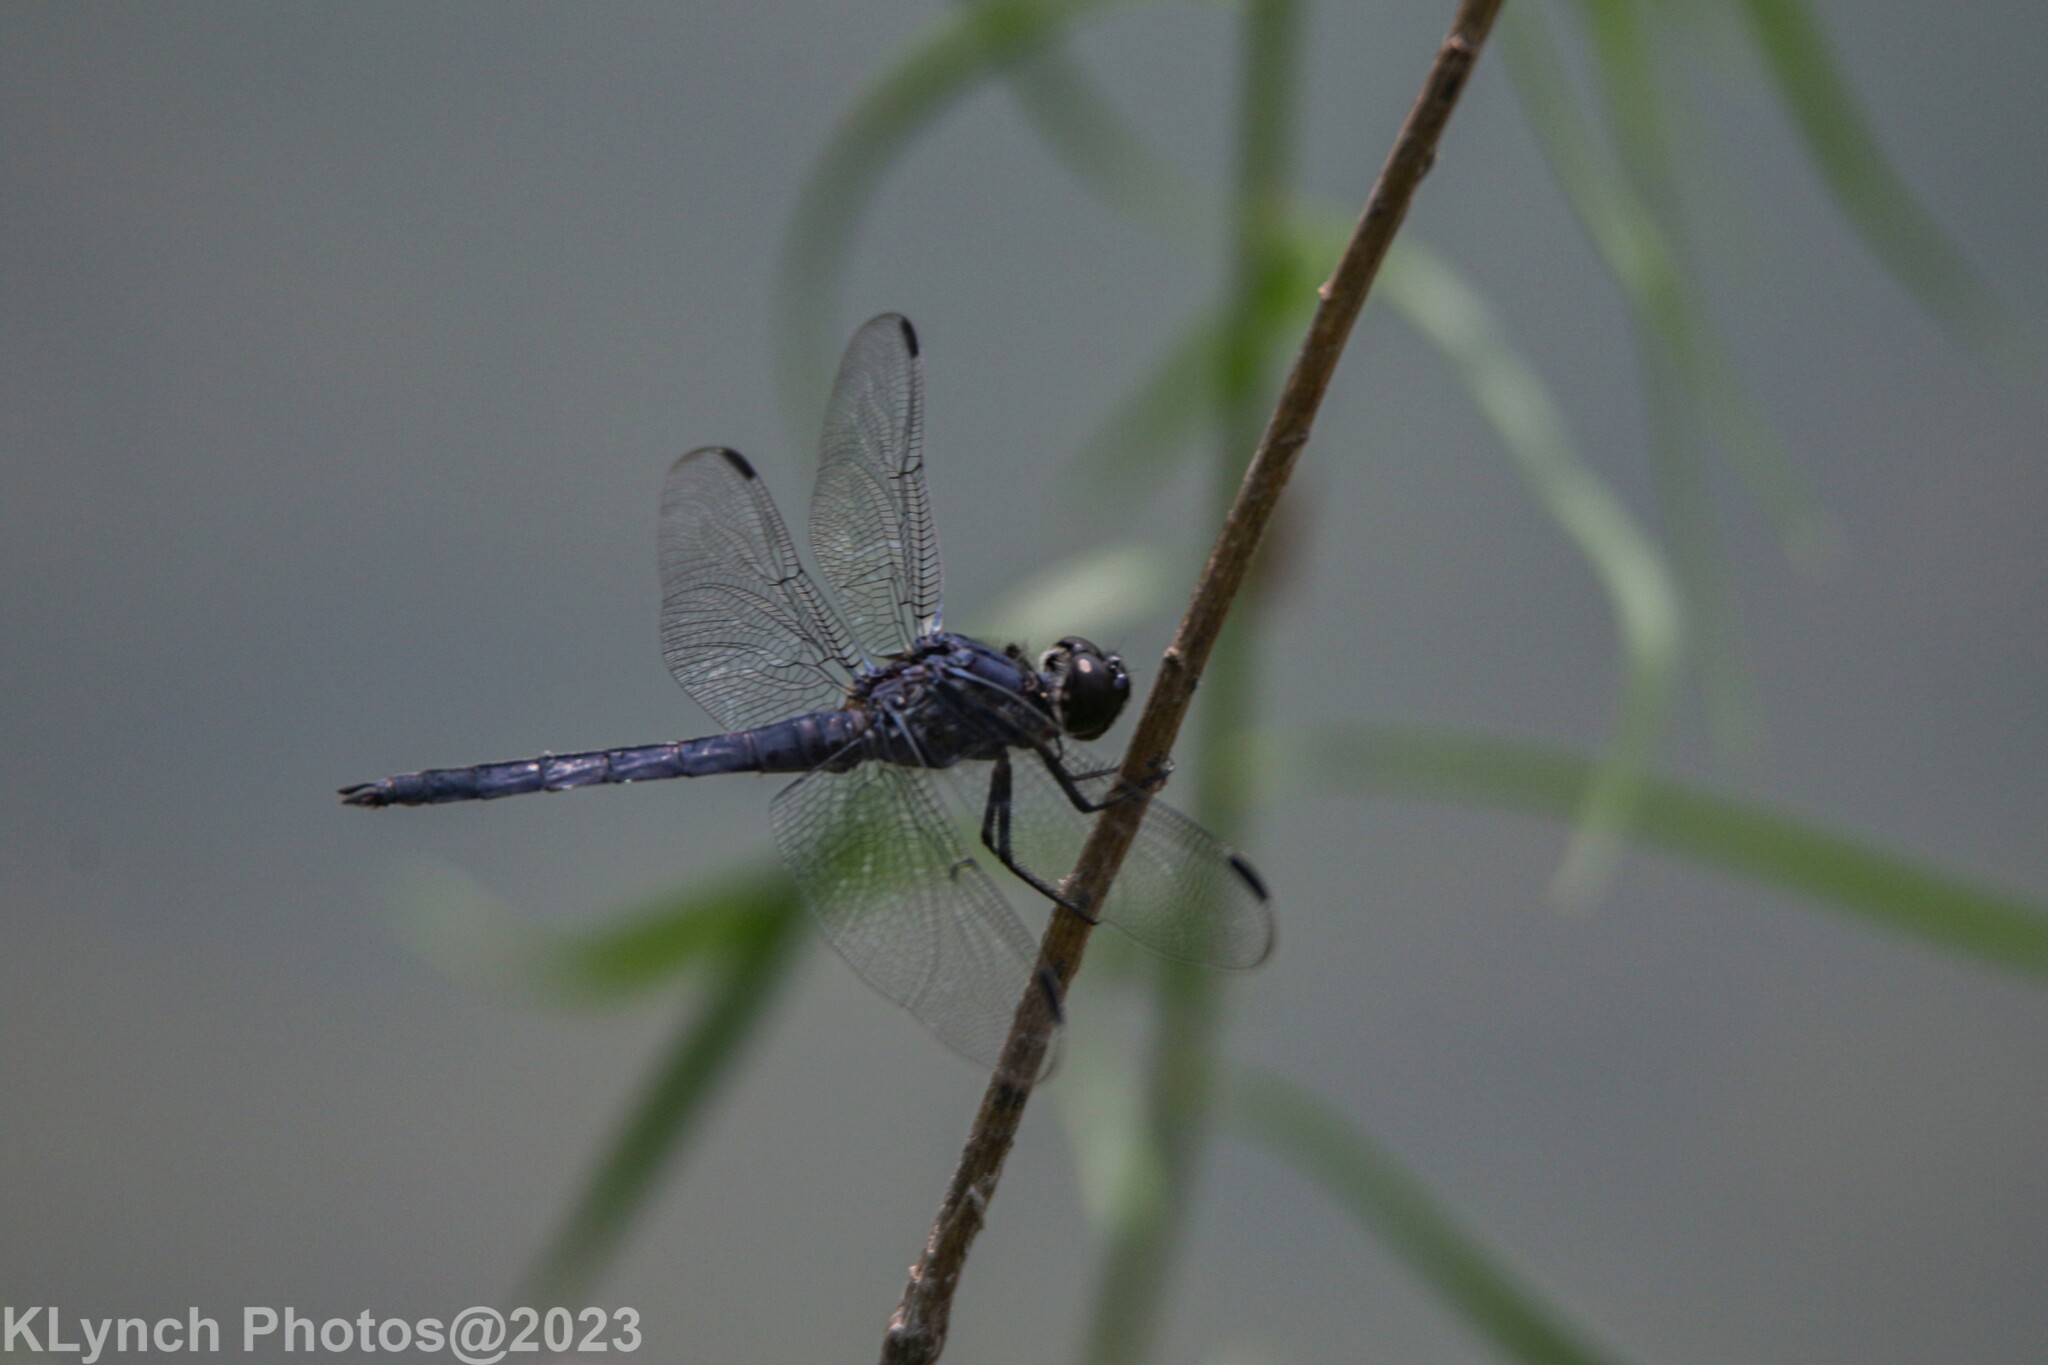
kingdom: Animalia
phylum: Arthropoda
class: Insecta
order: Odonata
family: Libellulidae
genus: Libellula
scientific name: Libellula incesta
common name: Slaty skimmer
